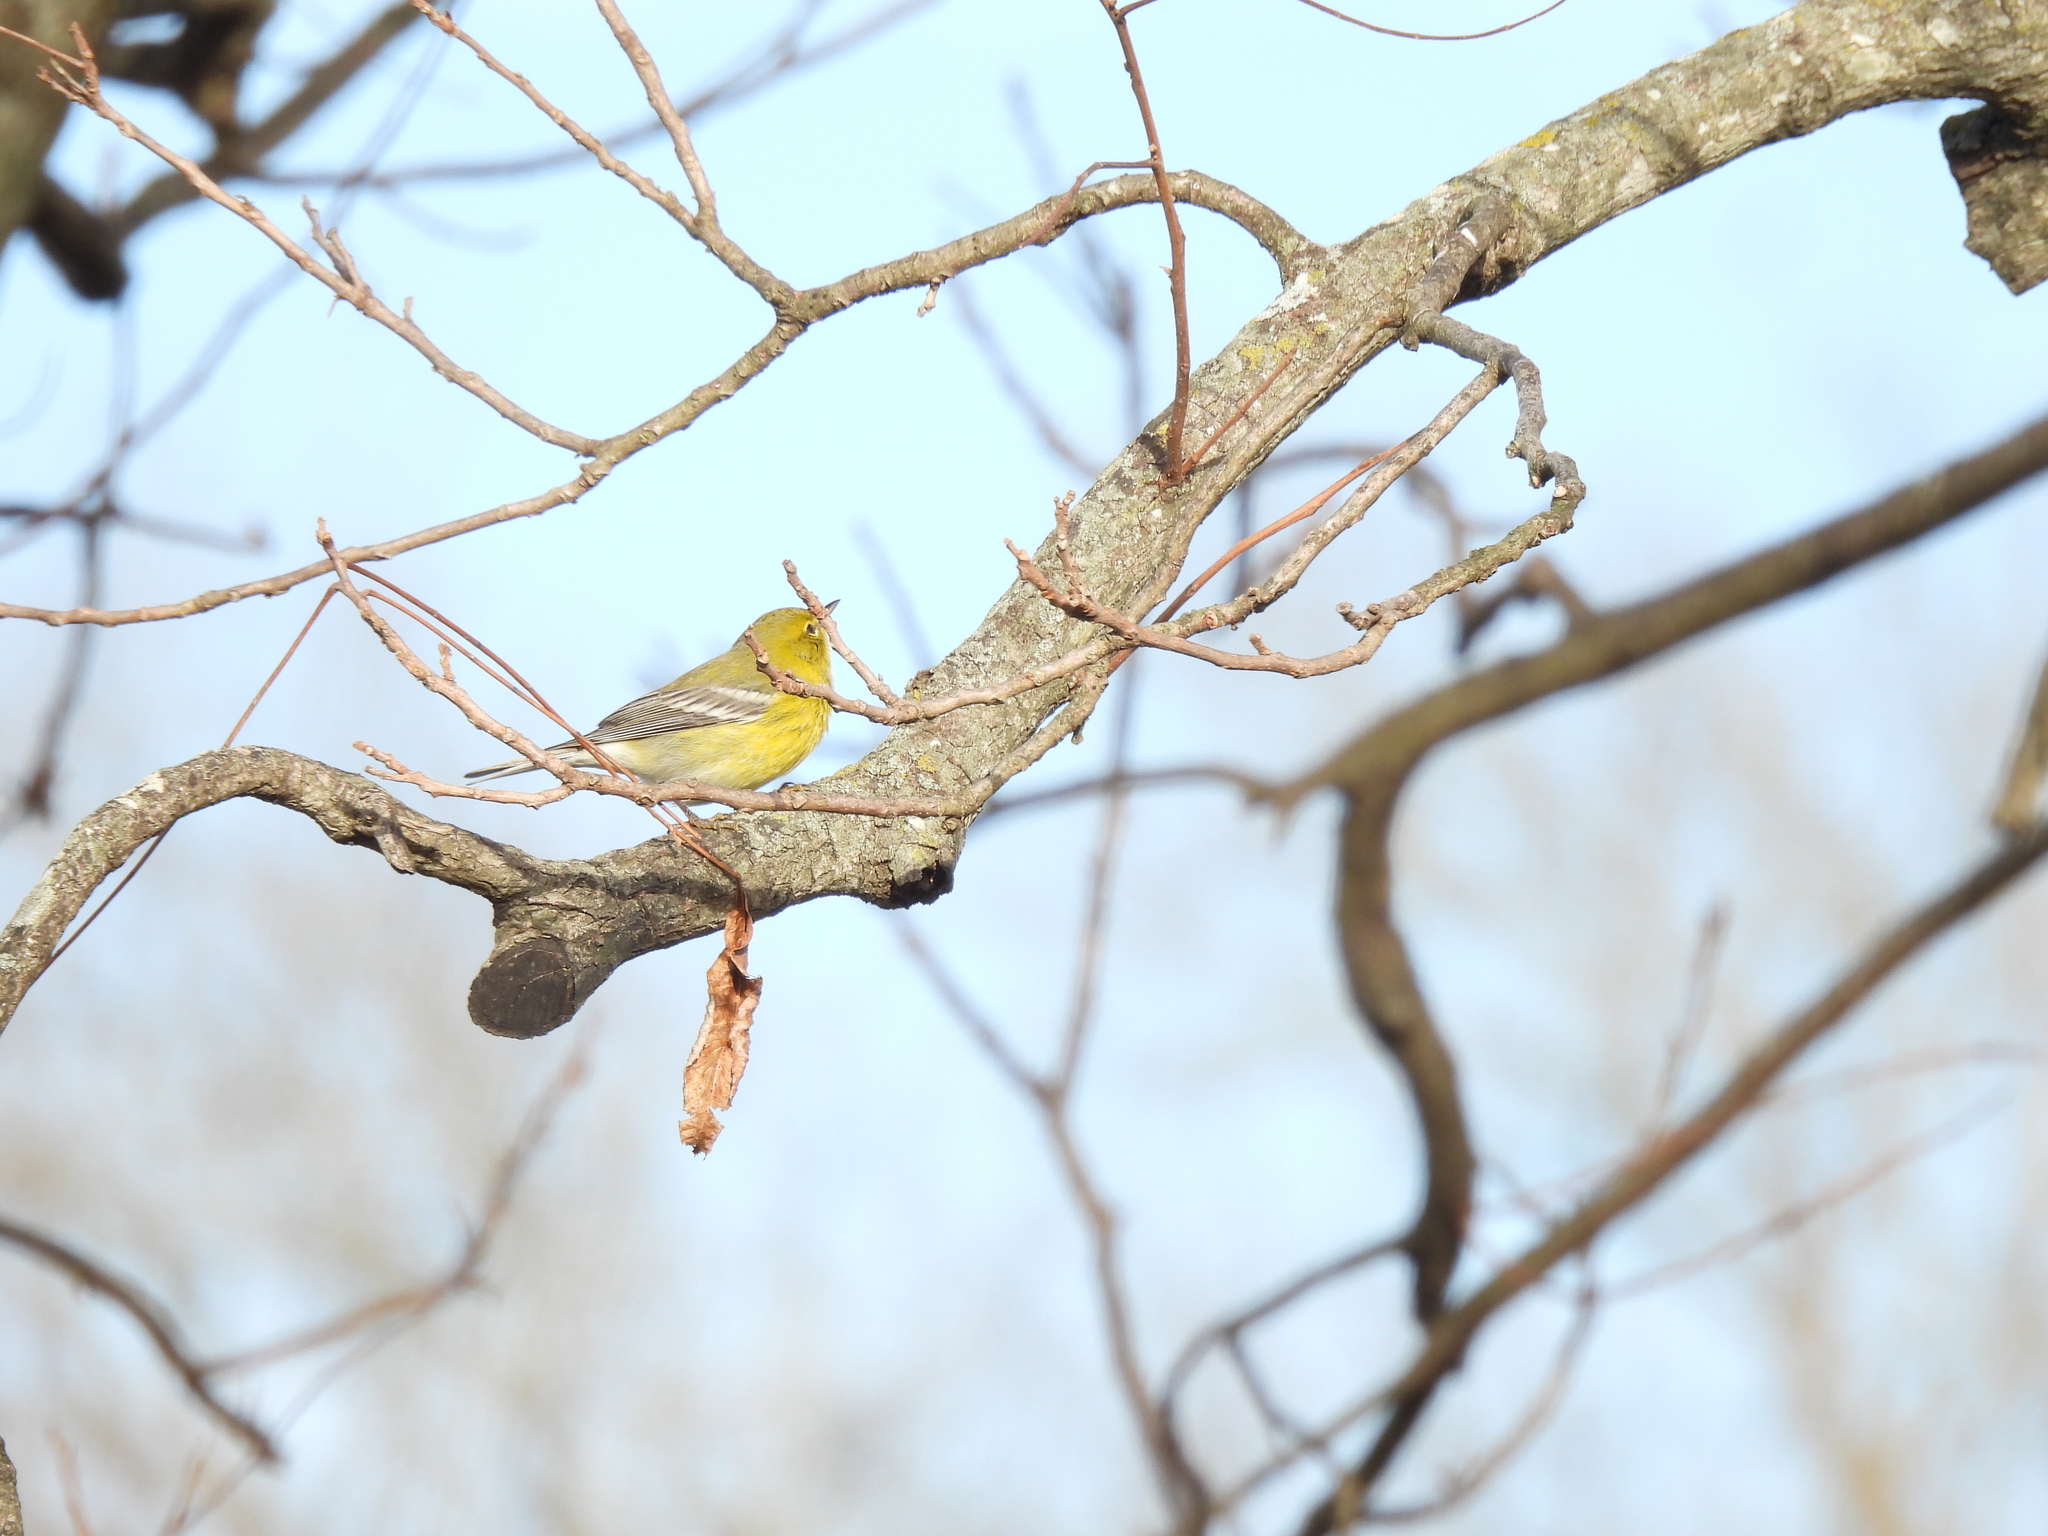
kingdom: Animalia
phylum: Chordata
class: Aves
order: Passeriformes
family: Parulidae
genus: Setophaga
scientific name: Setophaga pinus
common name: Pine warbler
